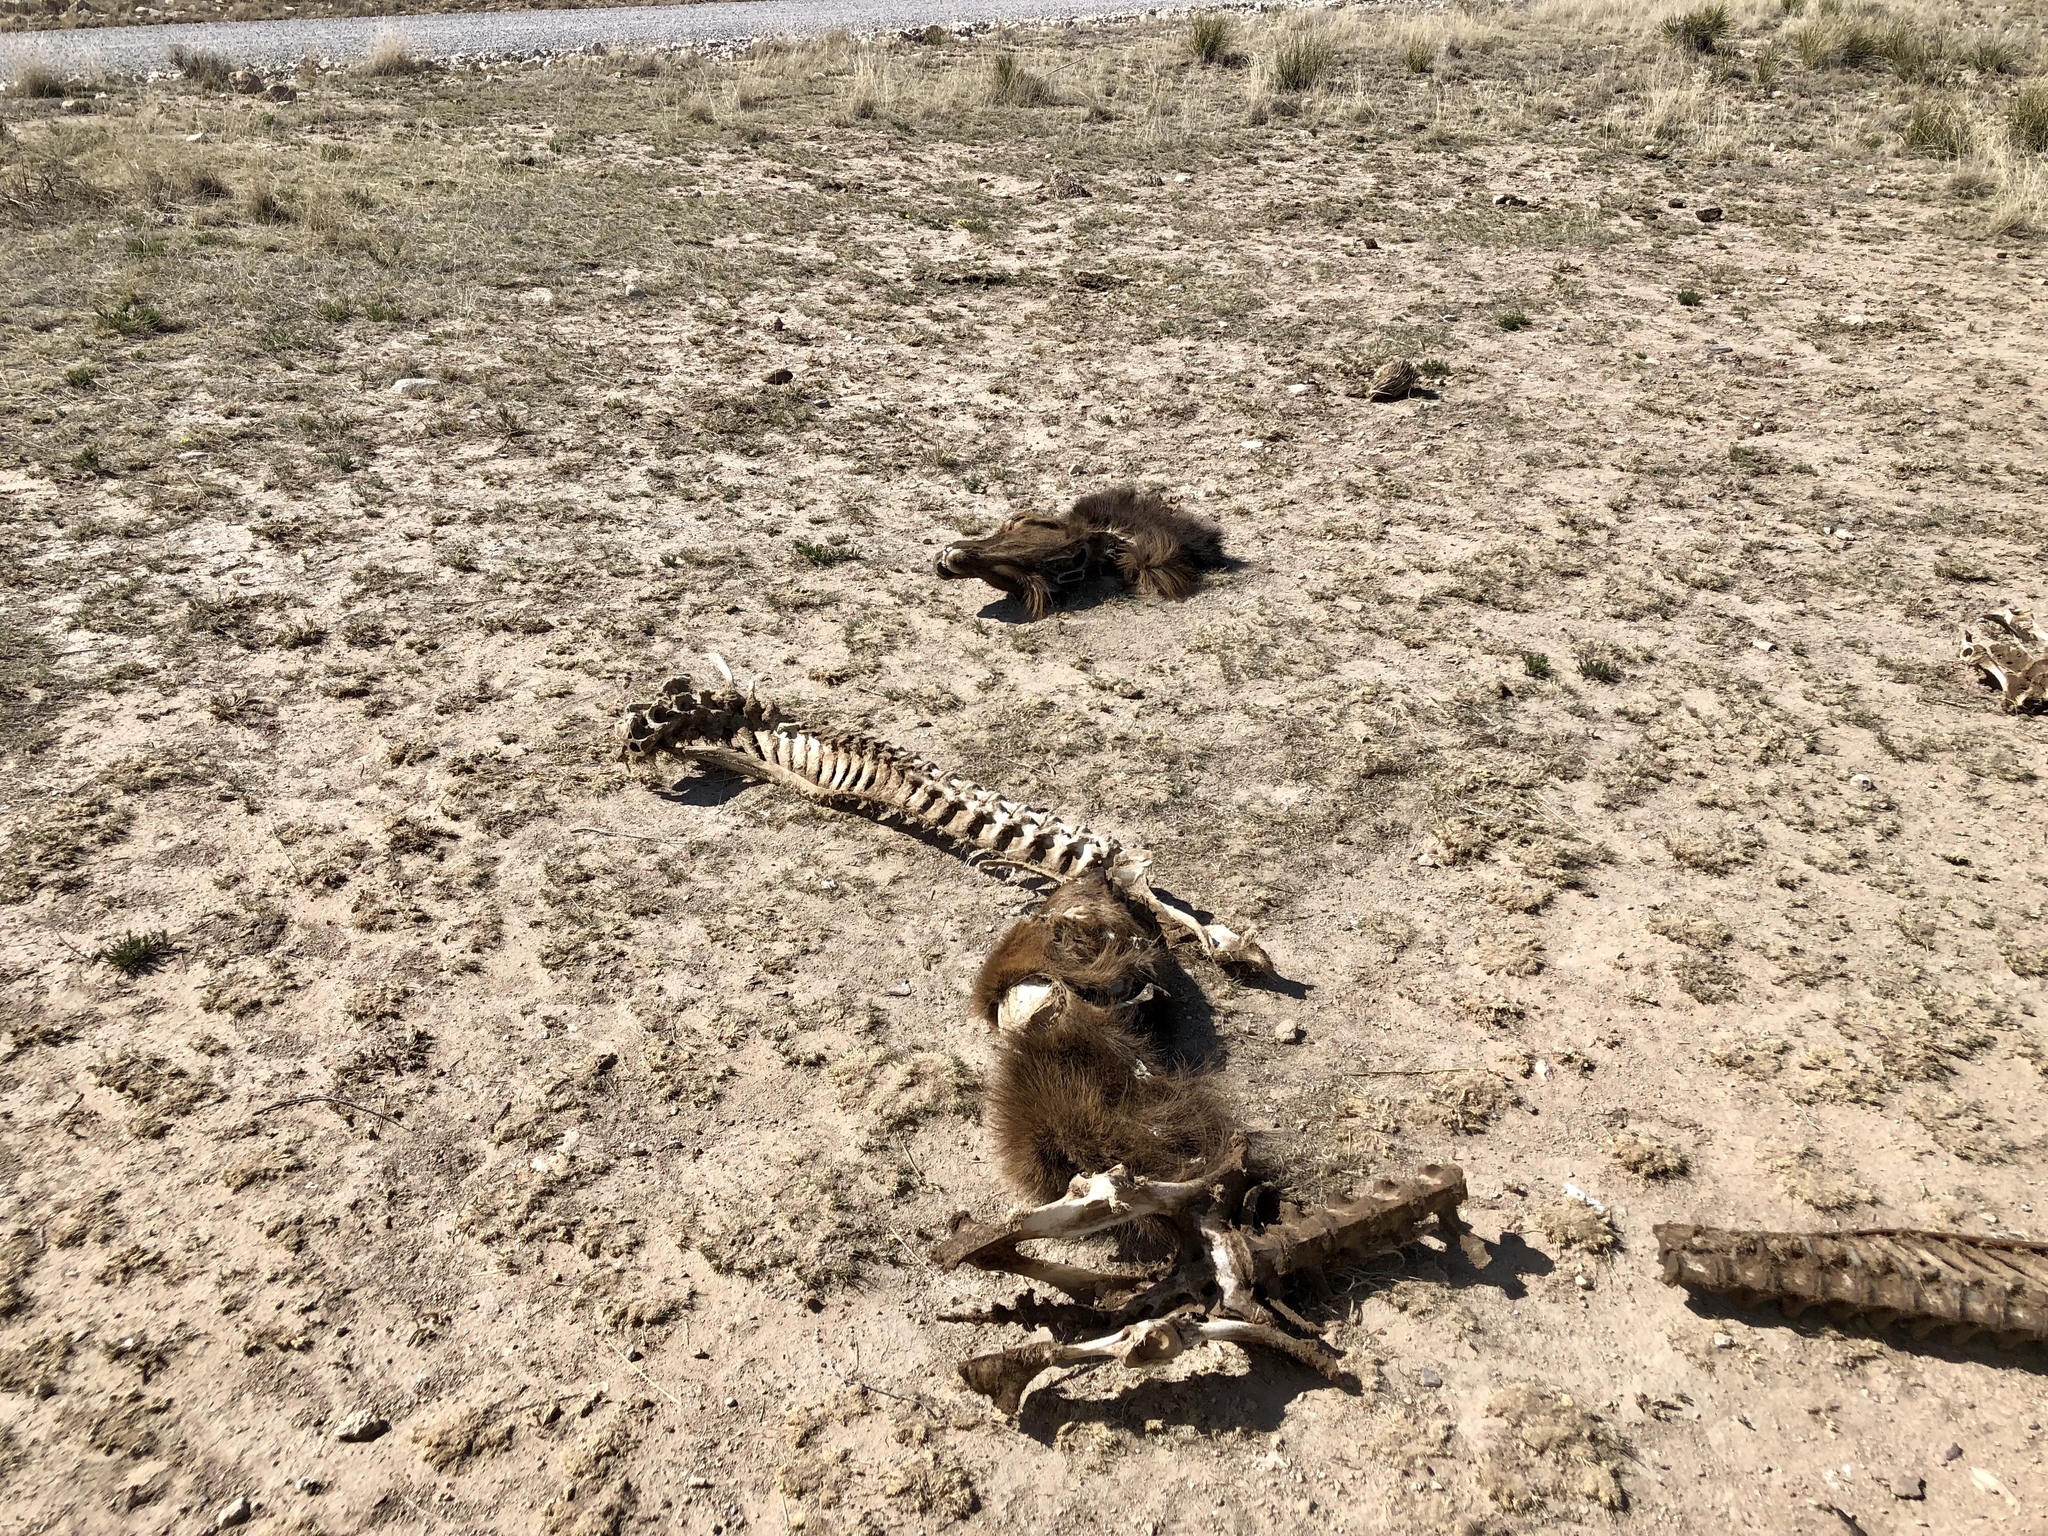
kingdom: Animalia
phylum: Chordata
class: Mammalia
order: Artiodactyla
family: Cervidae
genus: Cervus
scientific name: Cervus elaphus
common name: Red deer
